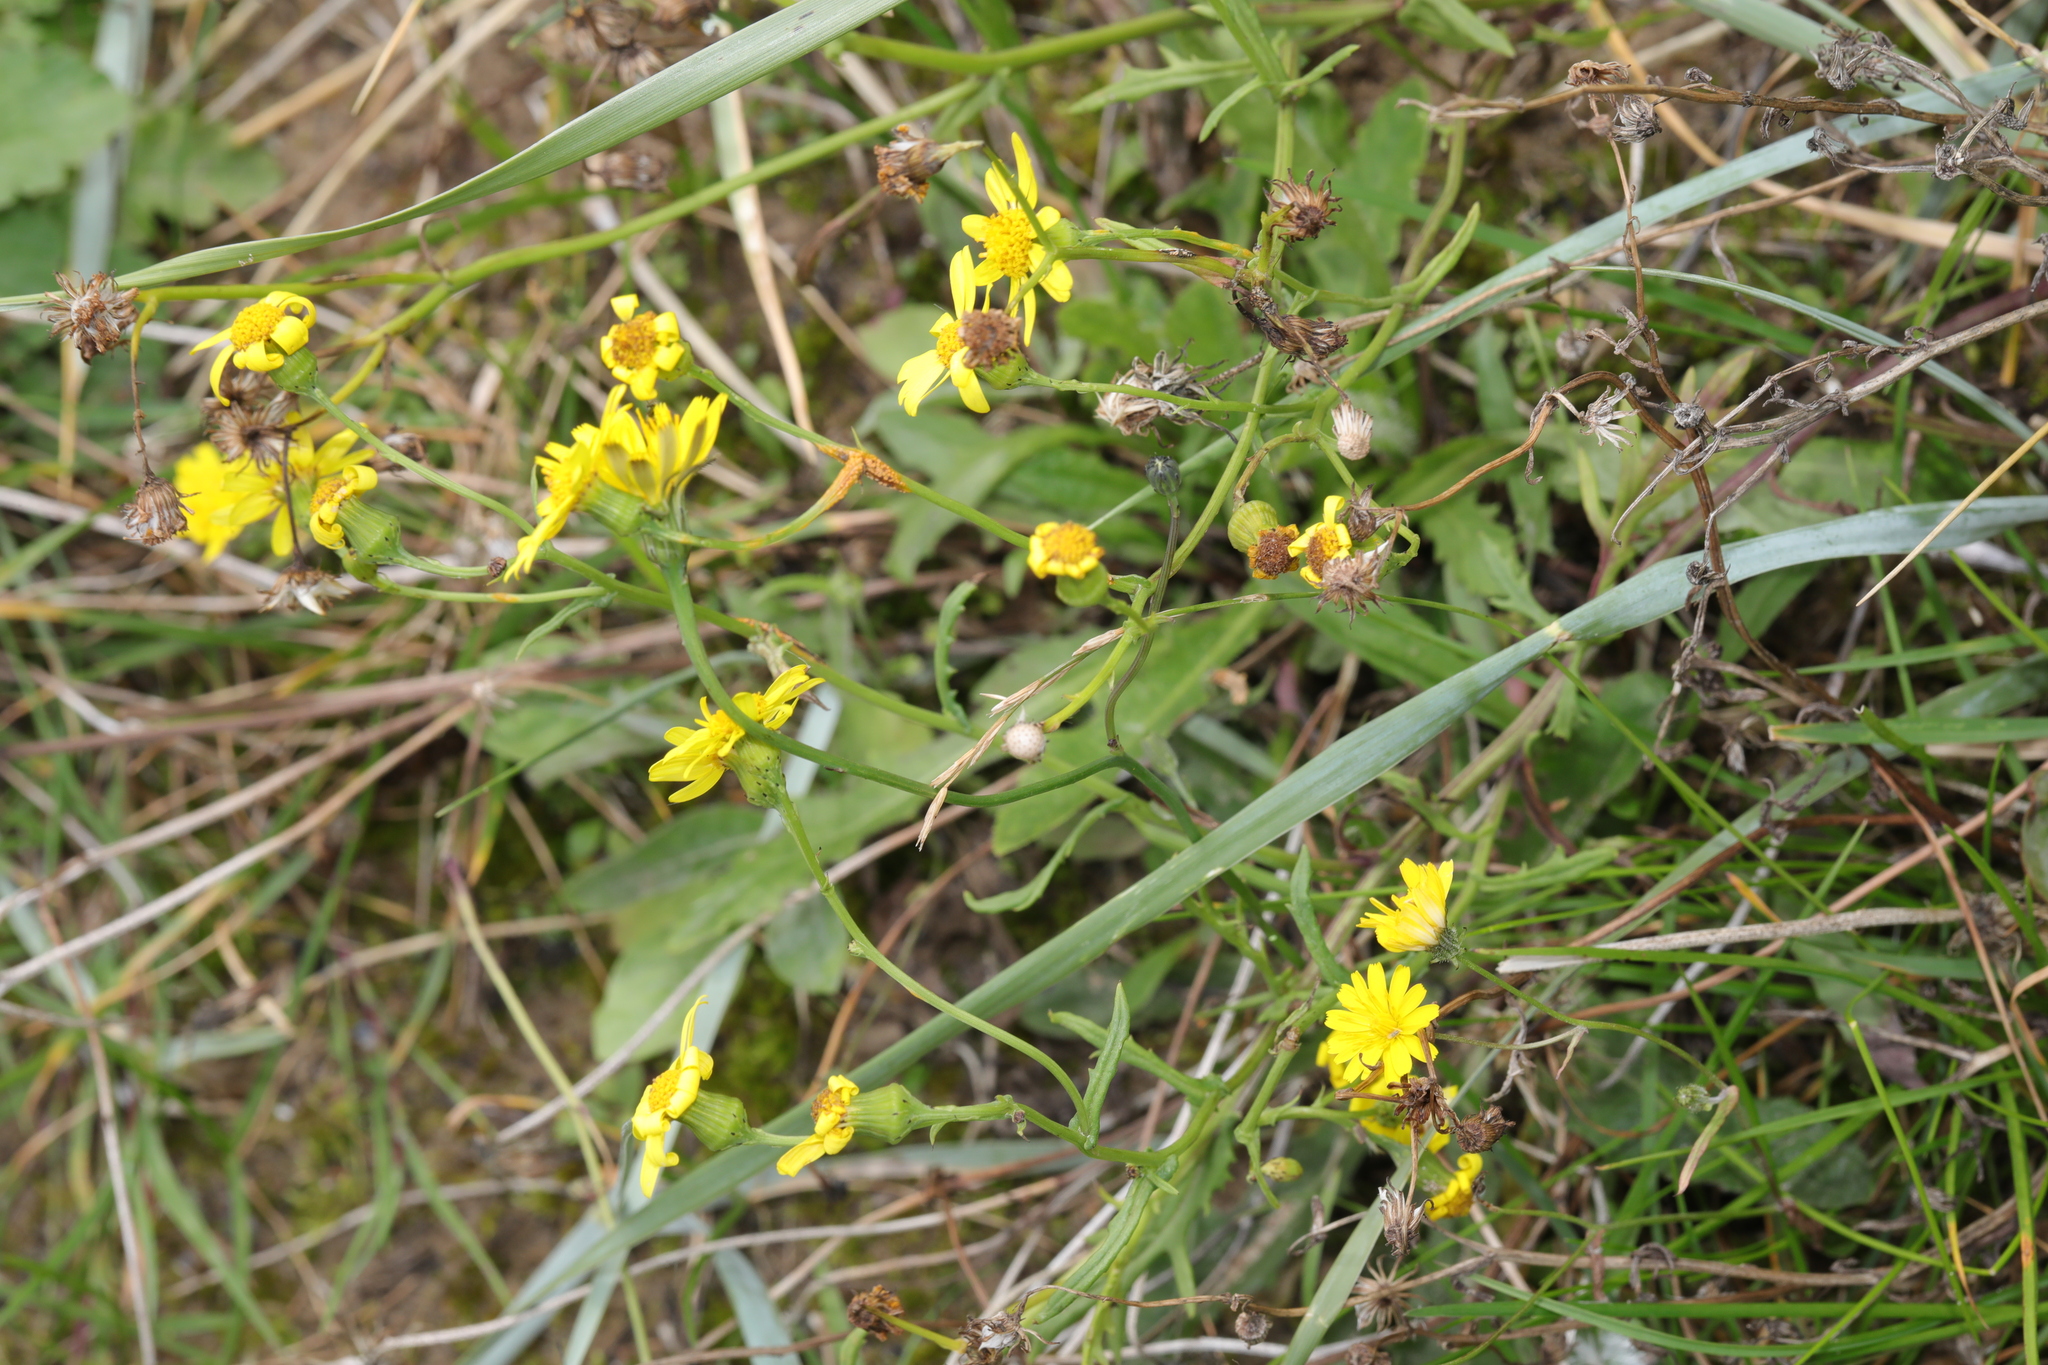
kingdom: Plantae
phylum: Tracheophyta
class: Magnoliopsida
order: Asterales
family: Asteraceae
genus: Senecio
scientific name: Senecio squalidus
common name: Oxford ragwort
